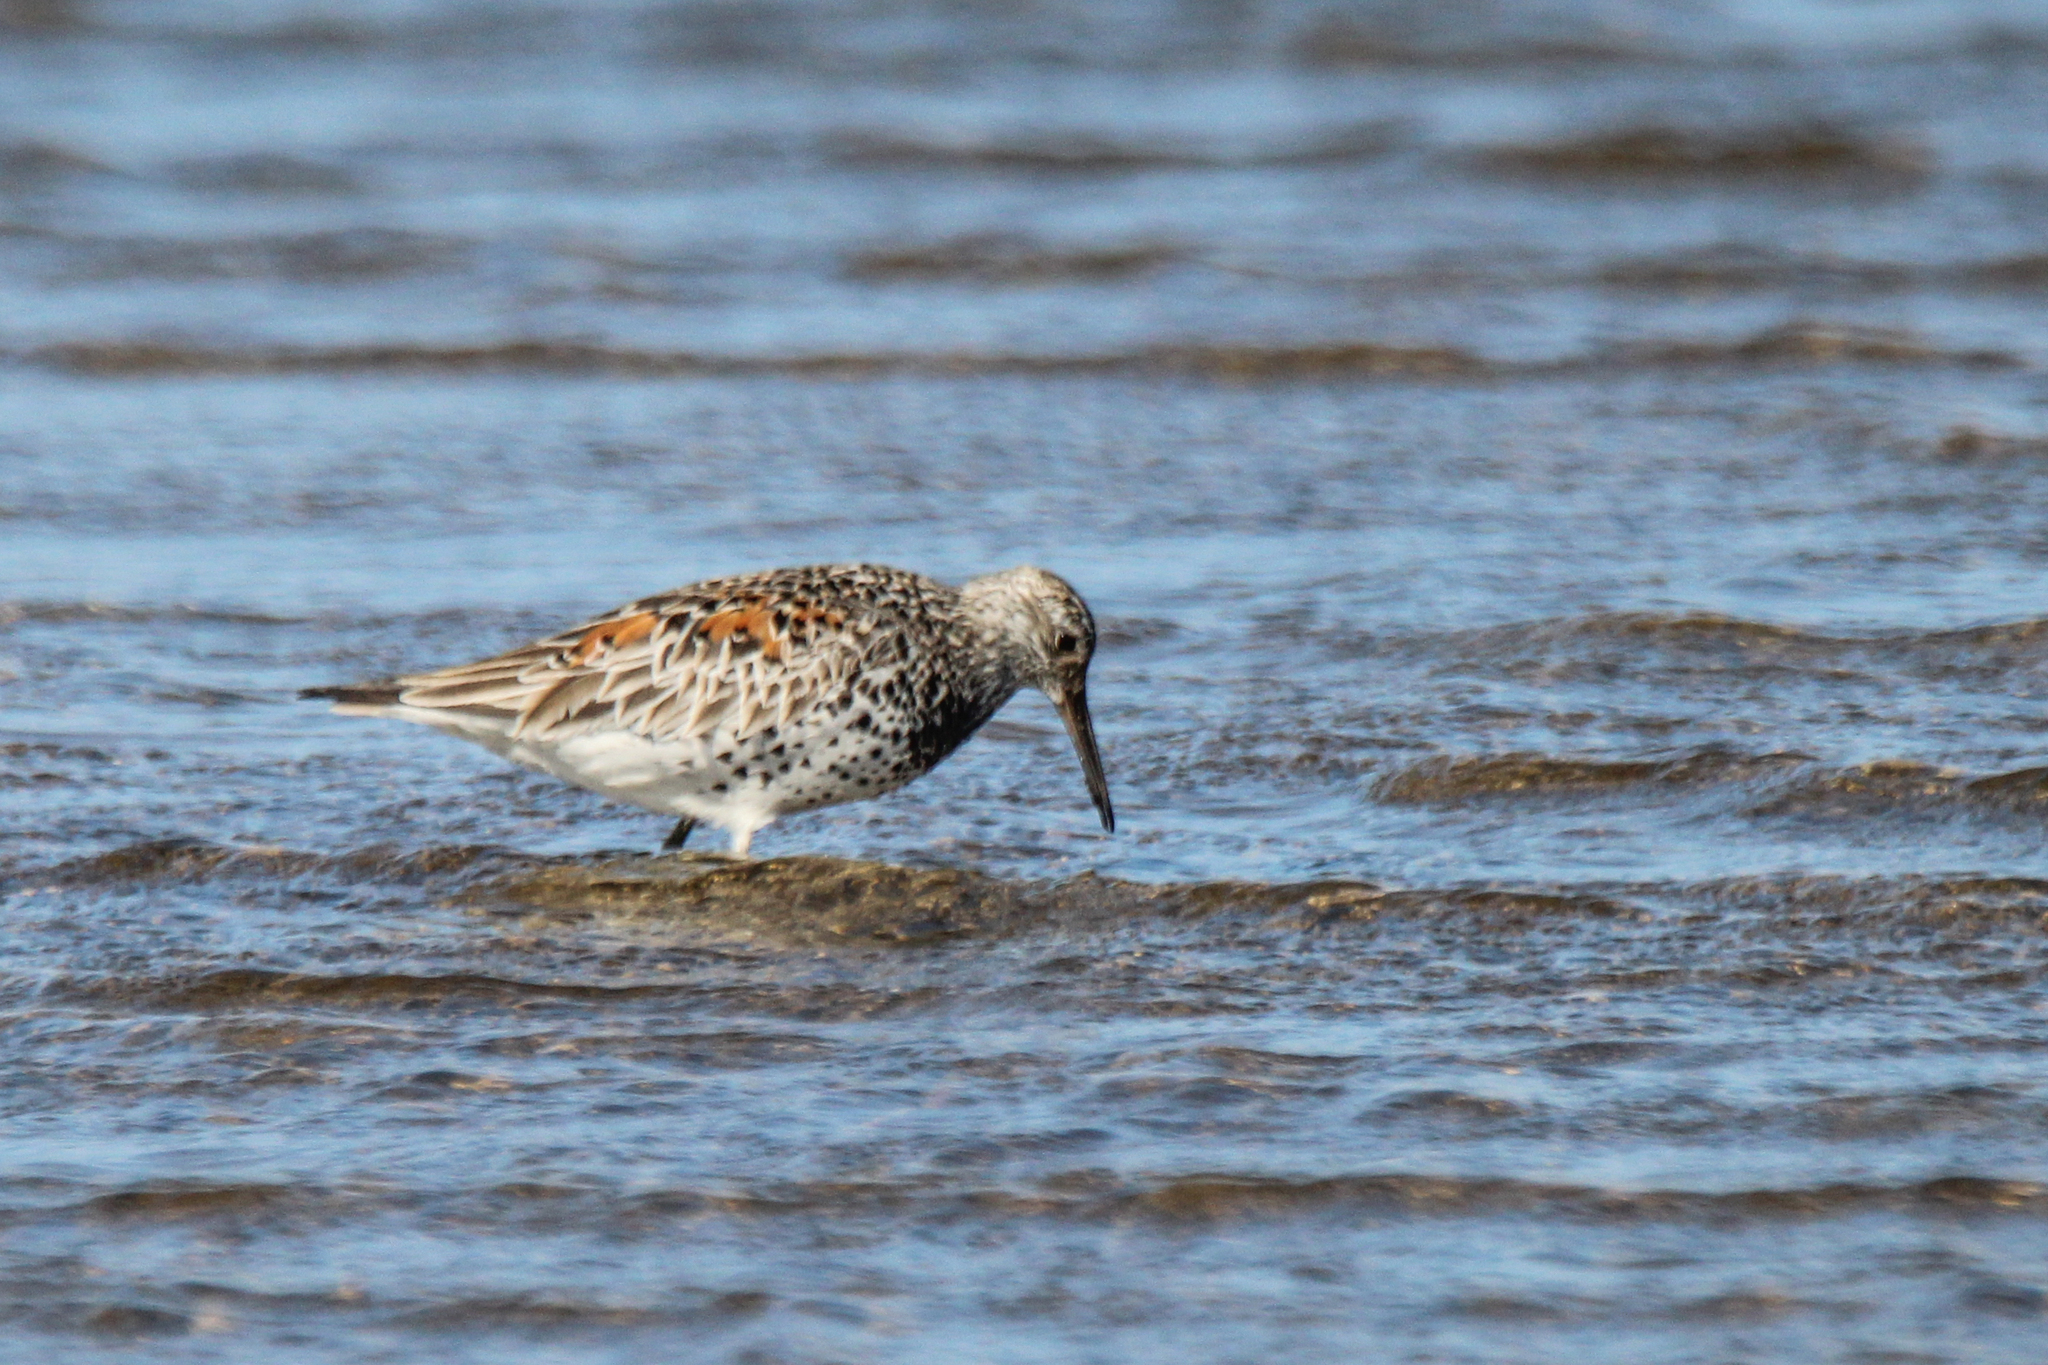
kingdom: Animalia
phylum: Chordata
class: Aves
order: Charadriiformes
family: Scolopacidae
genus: Calidris
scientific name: Calidris tenuirostris
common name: Great knot
